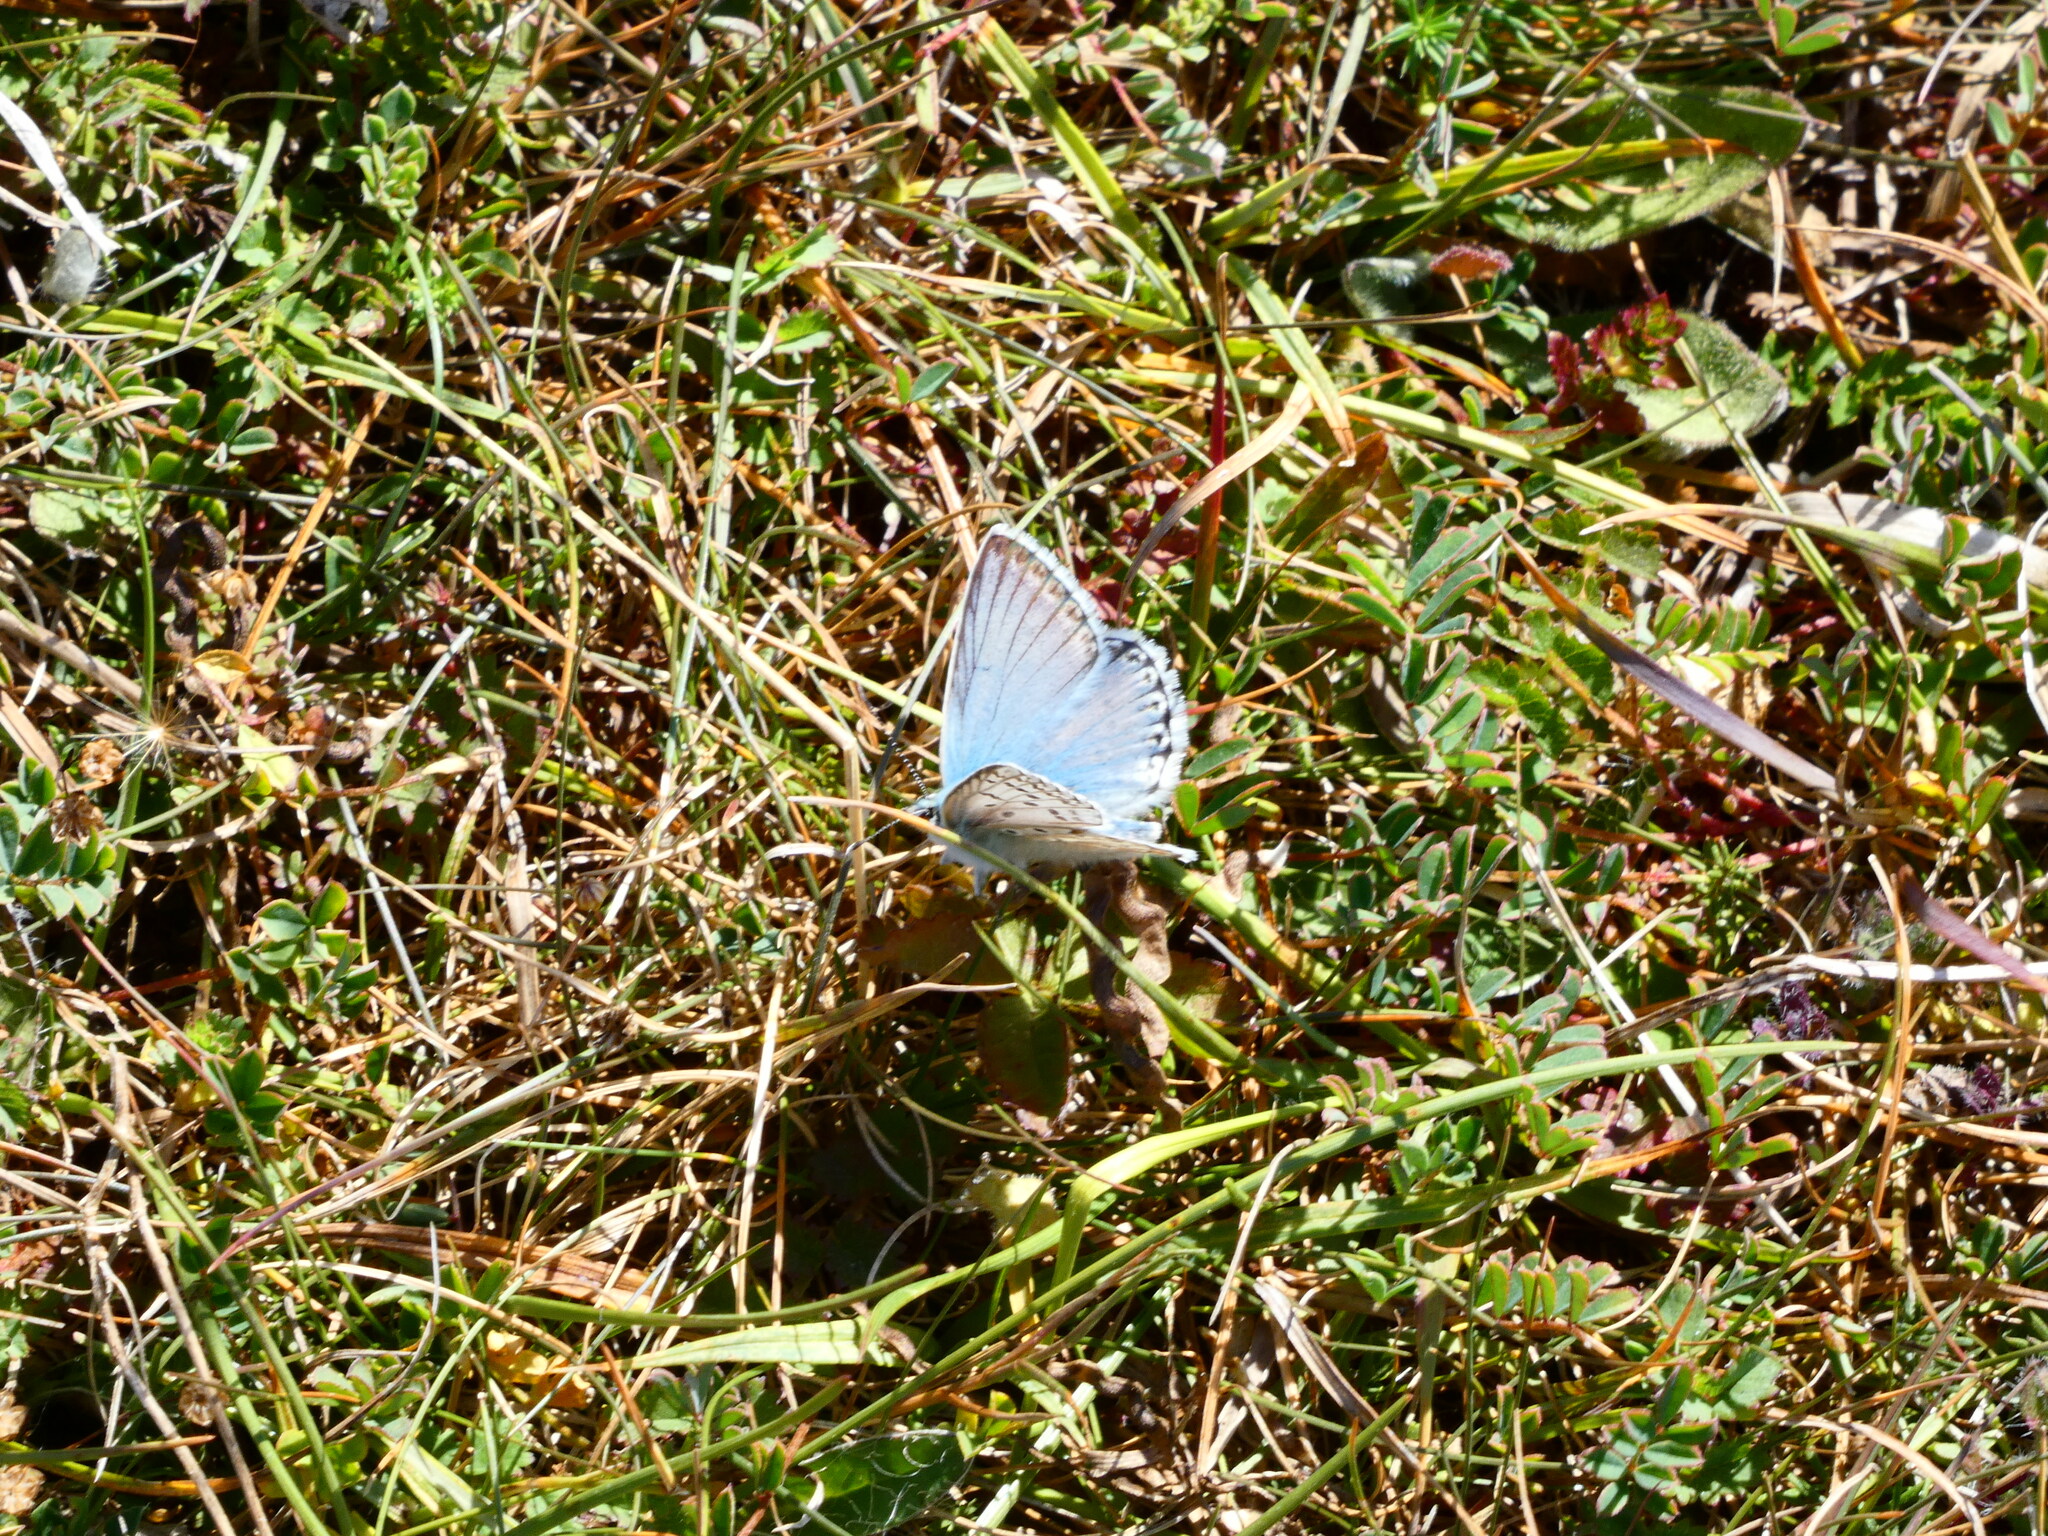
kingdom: Animalia
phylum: Arthropoda
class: Insecta
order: Lepidoptera
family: Lycaenidae
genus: Lysandra
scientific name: Lysandra coridon
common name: Chalkhill blue
